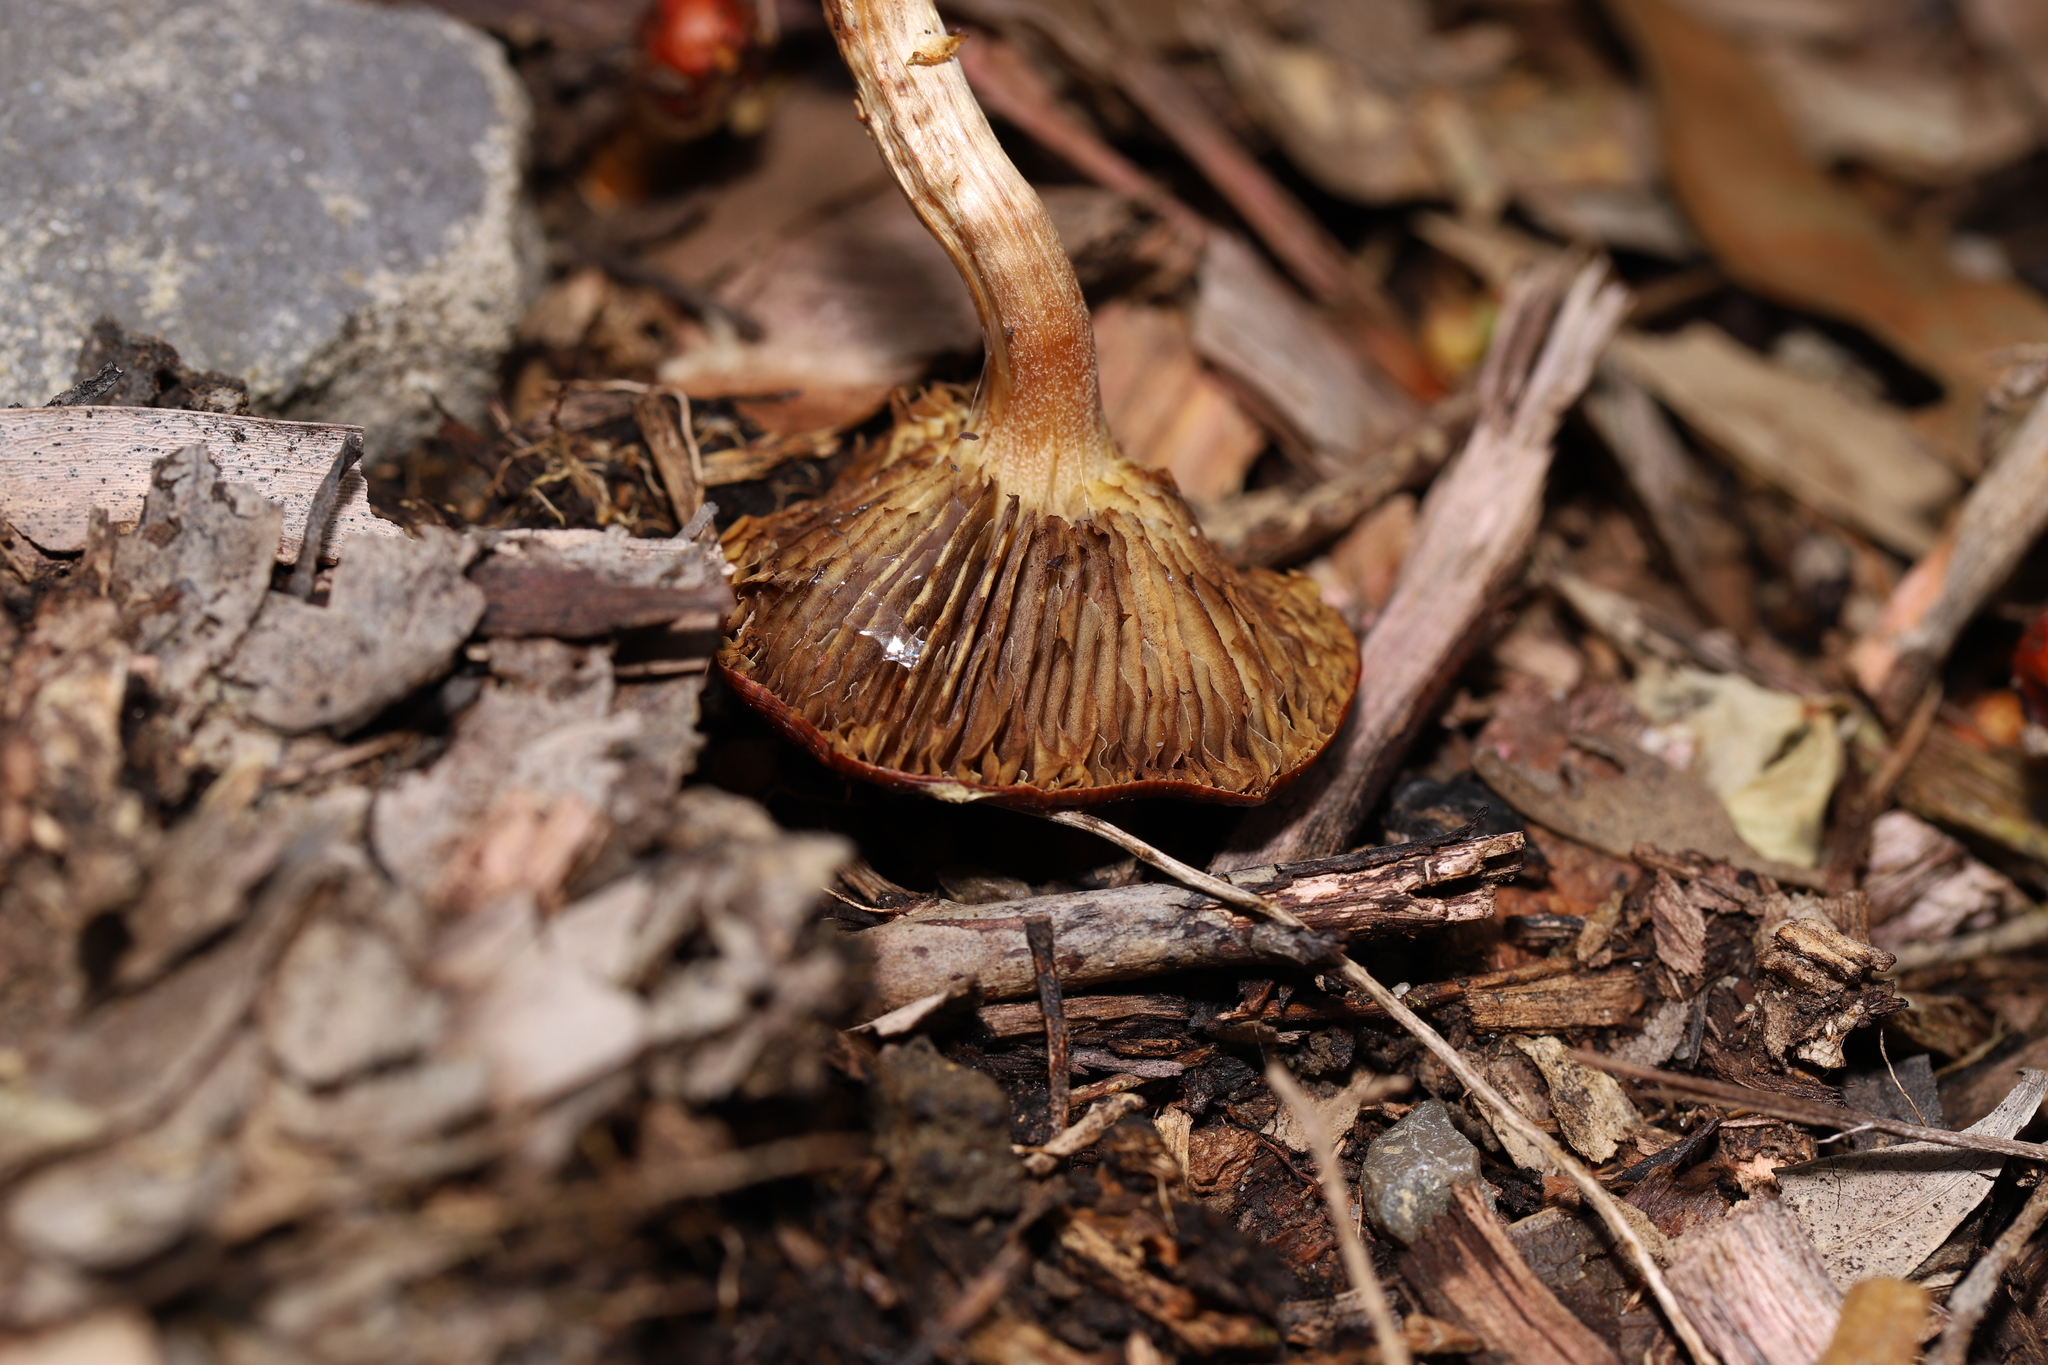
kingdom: Fungi
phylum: Basidiomycota
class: Agaricomycetes
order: Agaricales
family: Strophariaceae
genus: Leratiomyces
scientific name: Leratiomyces ceres
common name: Redlead roundhead
